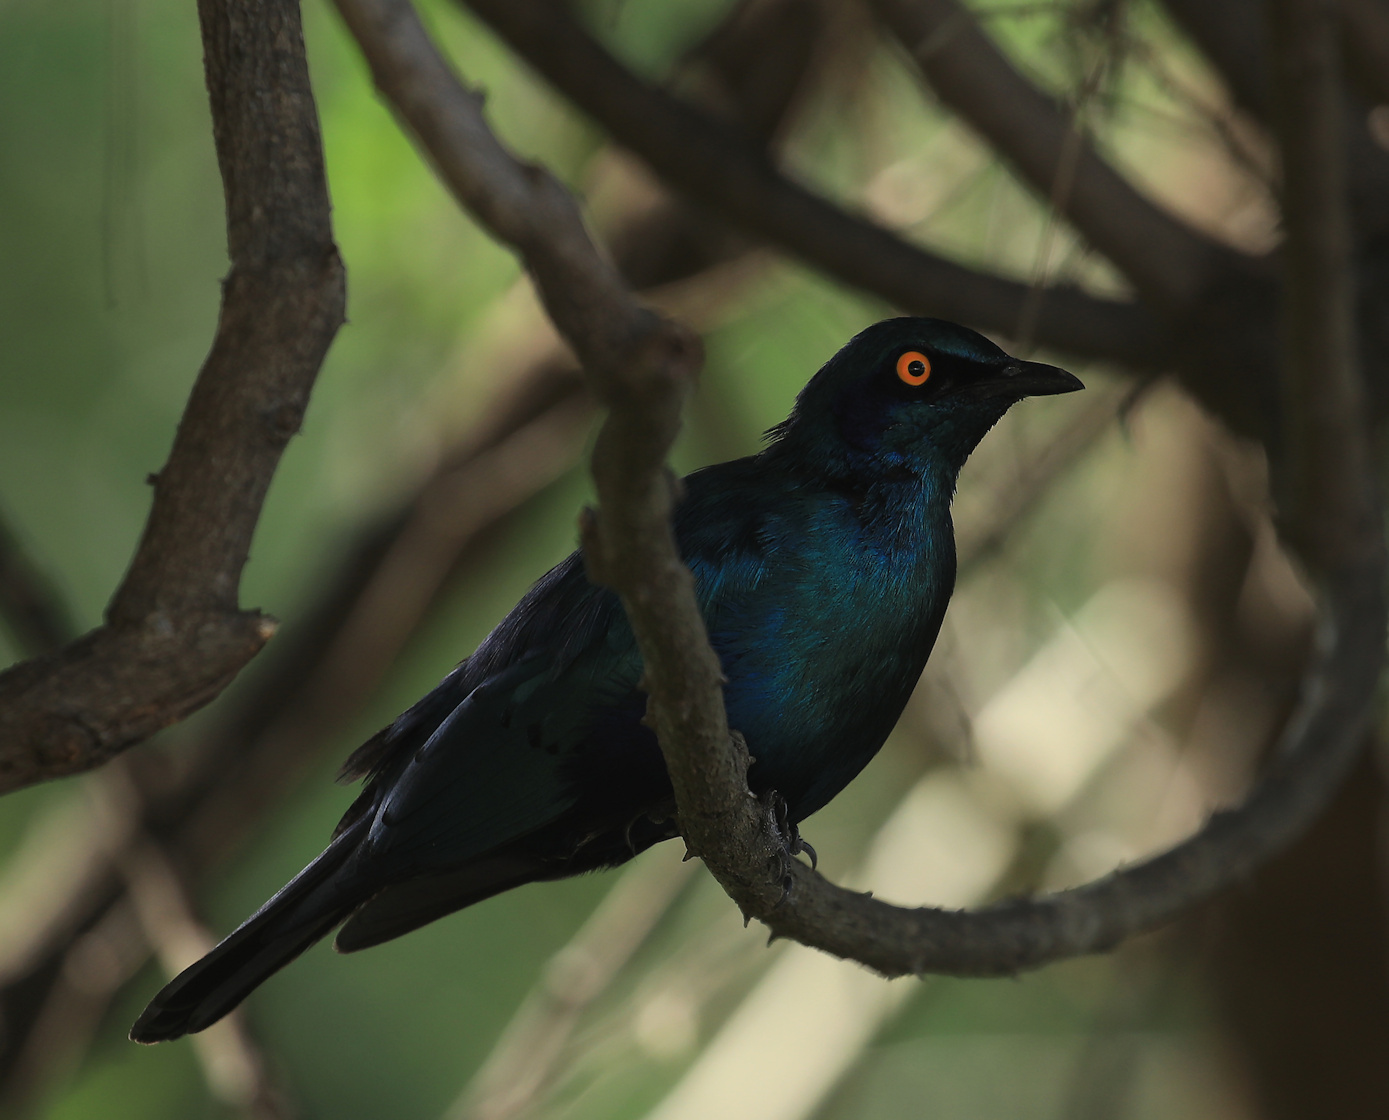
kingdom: Animalia
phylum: Chordata
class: Aves
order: Passeriformes
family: Sturnidae
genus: Lamprotornis
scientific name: Lamprotornis nitens
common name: Cape starling
